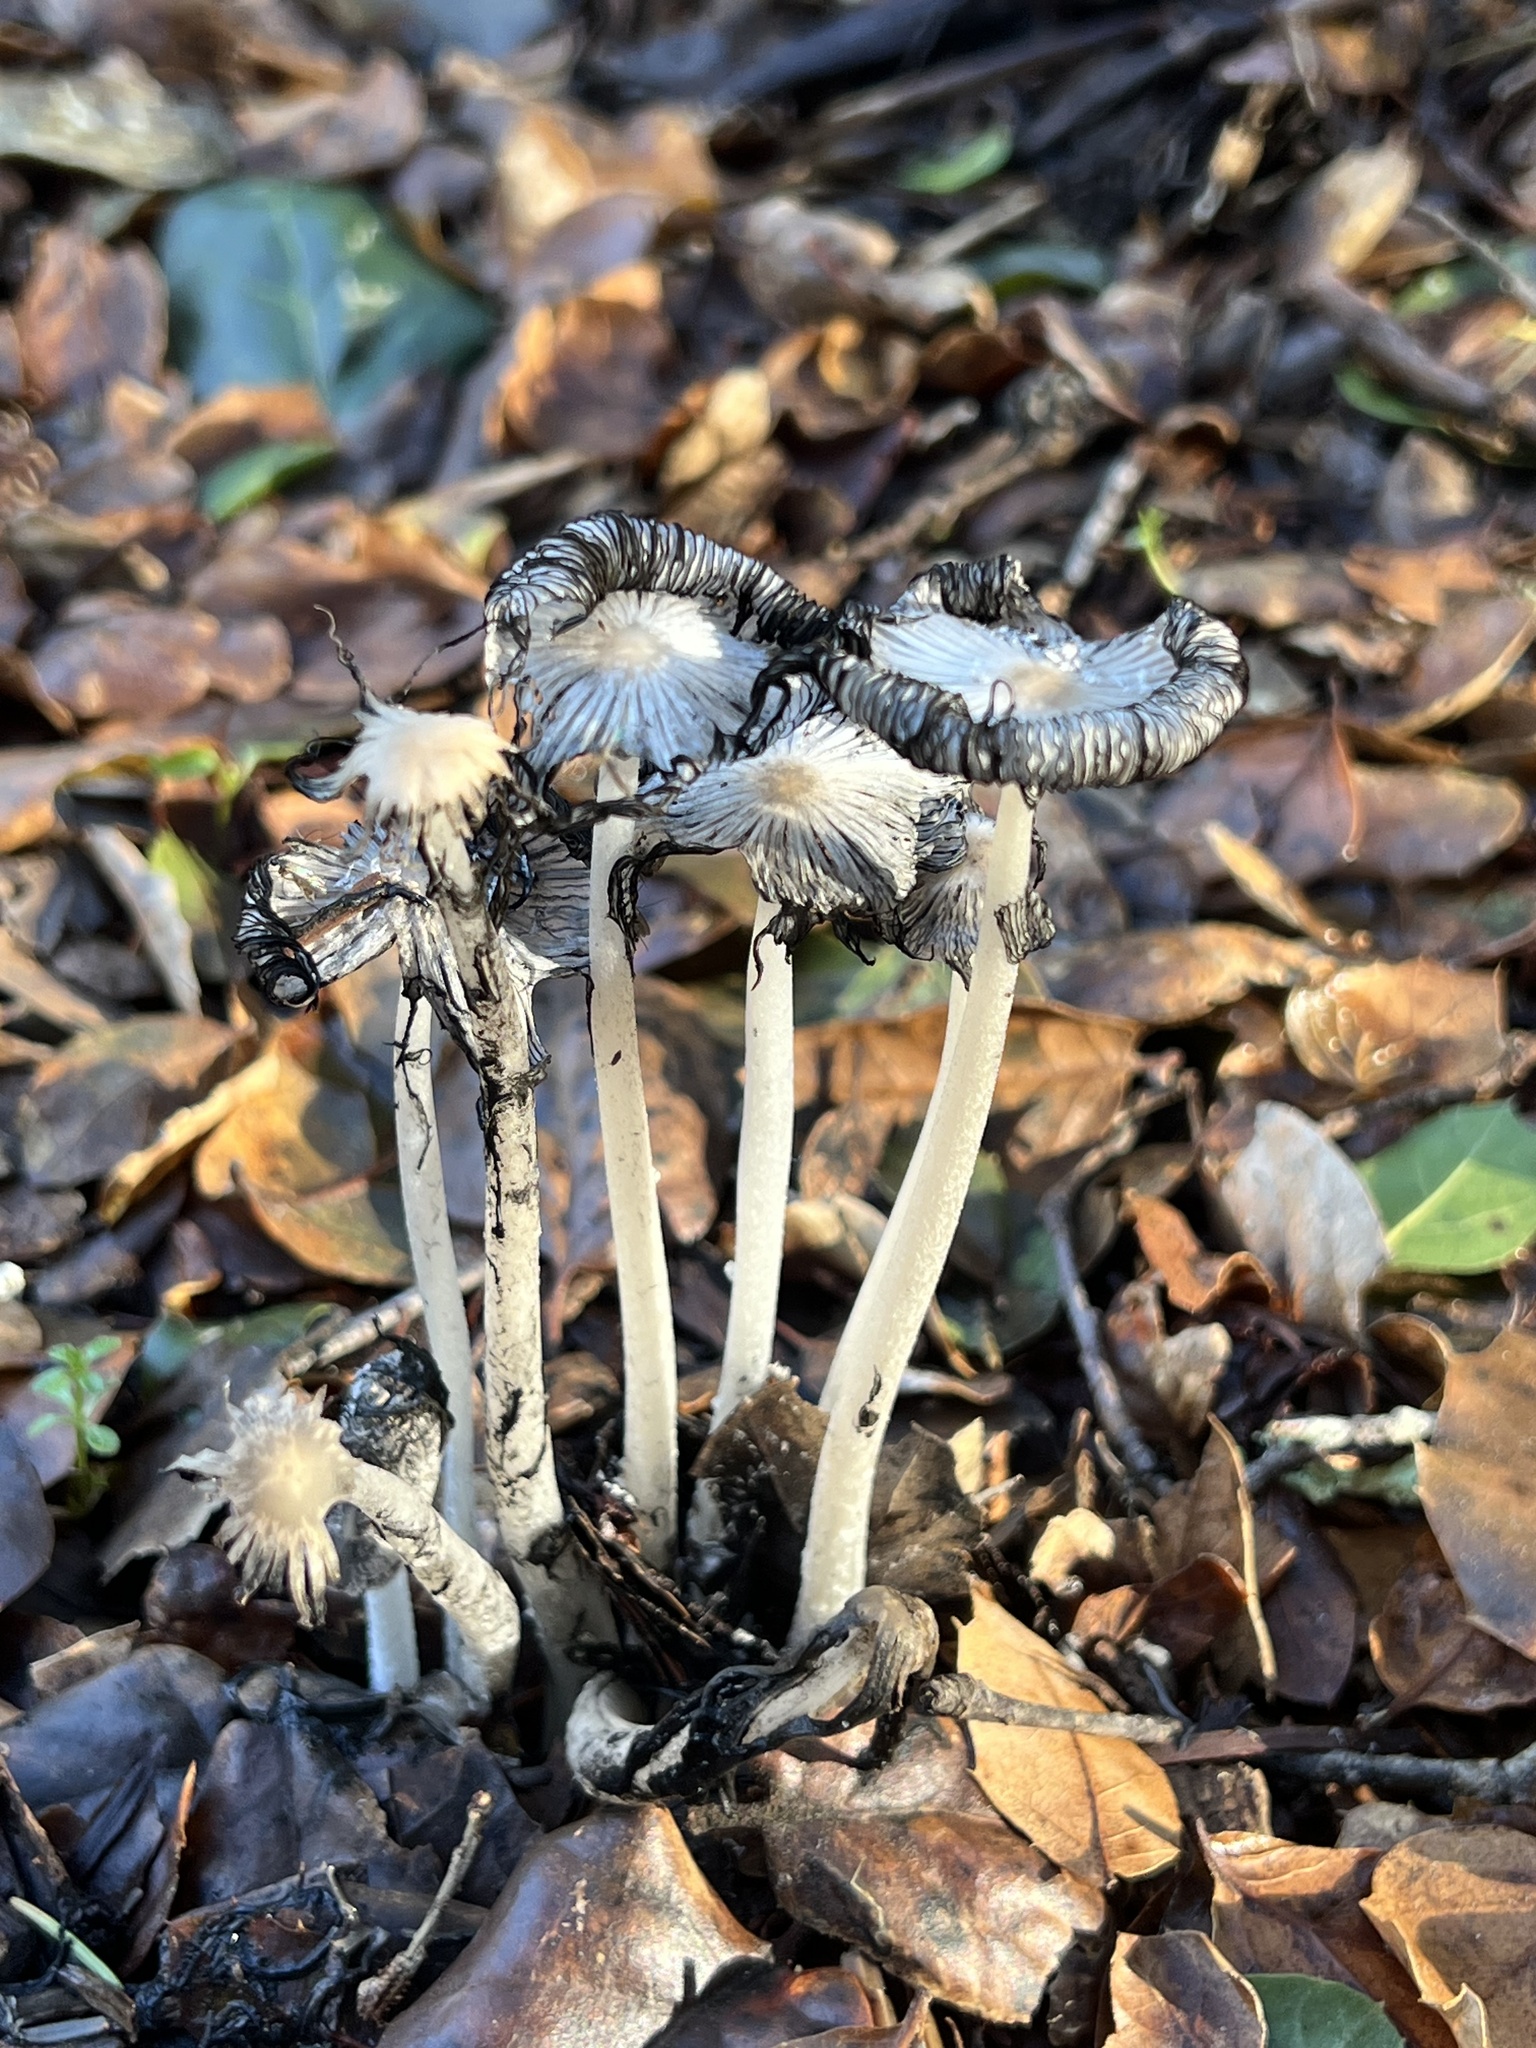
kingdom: Fungi
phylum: Basidiomycota
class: Agaricomycetes
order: Agaricales
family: Psathyrellaceae
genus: Coprinopsis
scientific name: Coprinopsis lagopus
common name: Hare'sfoot inkcap
